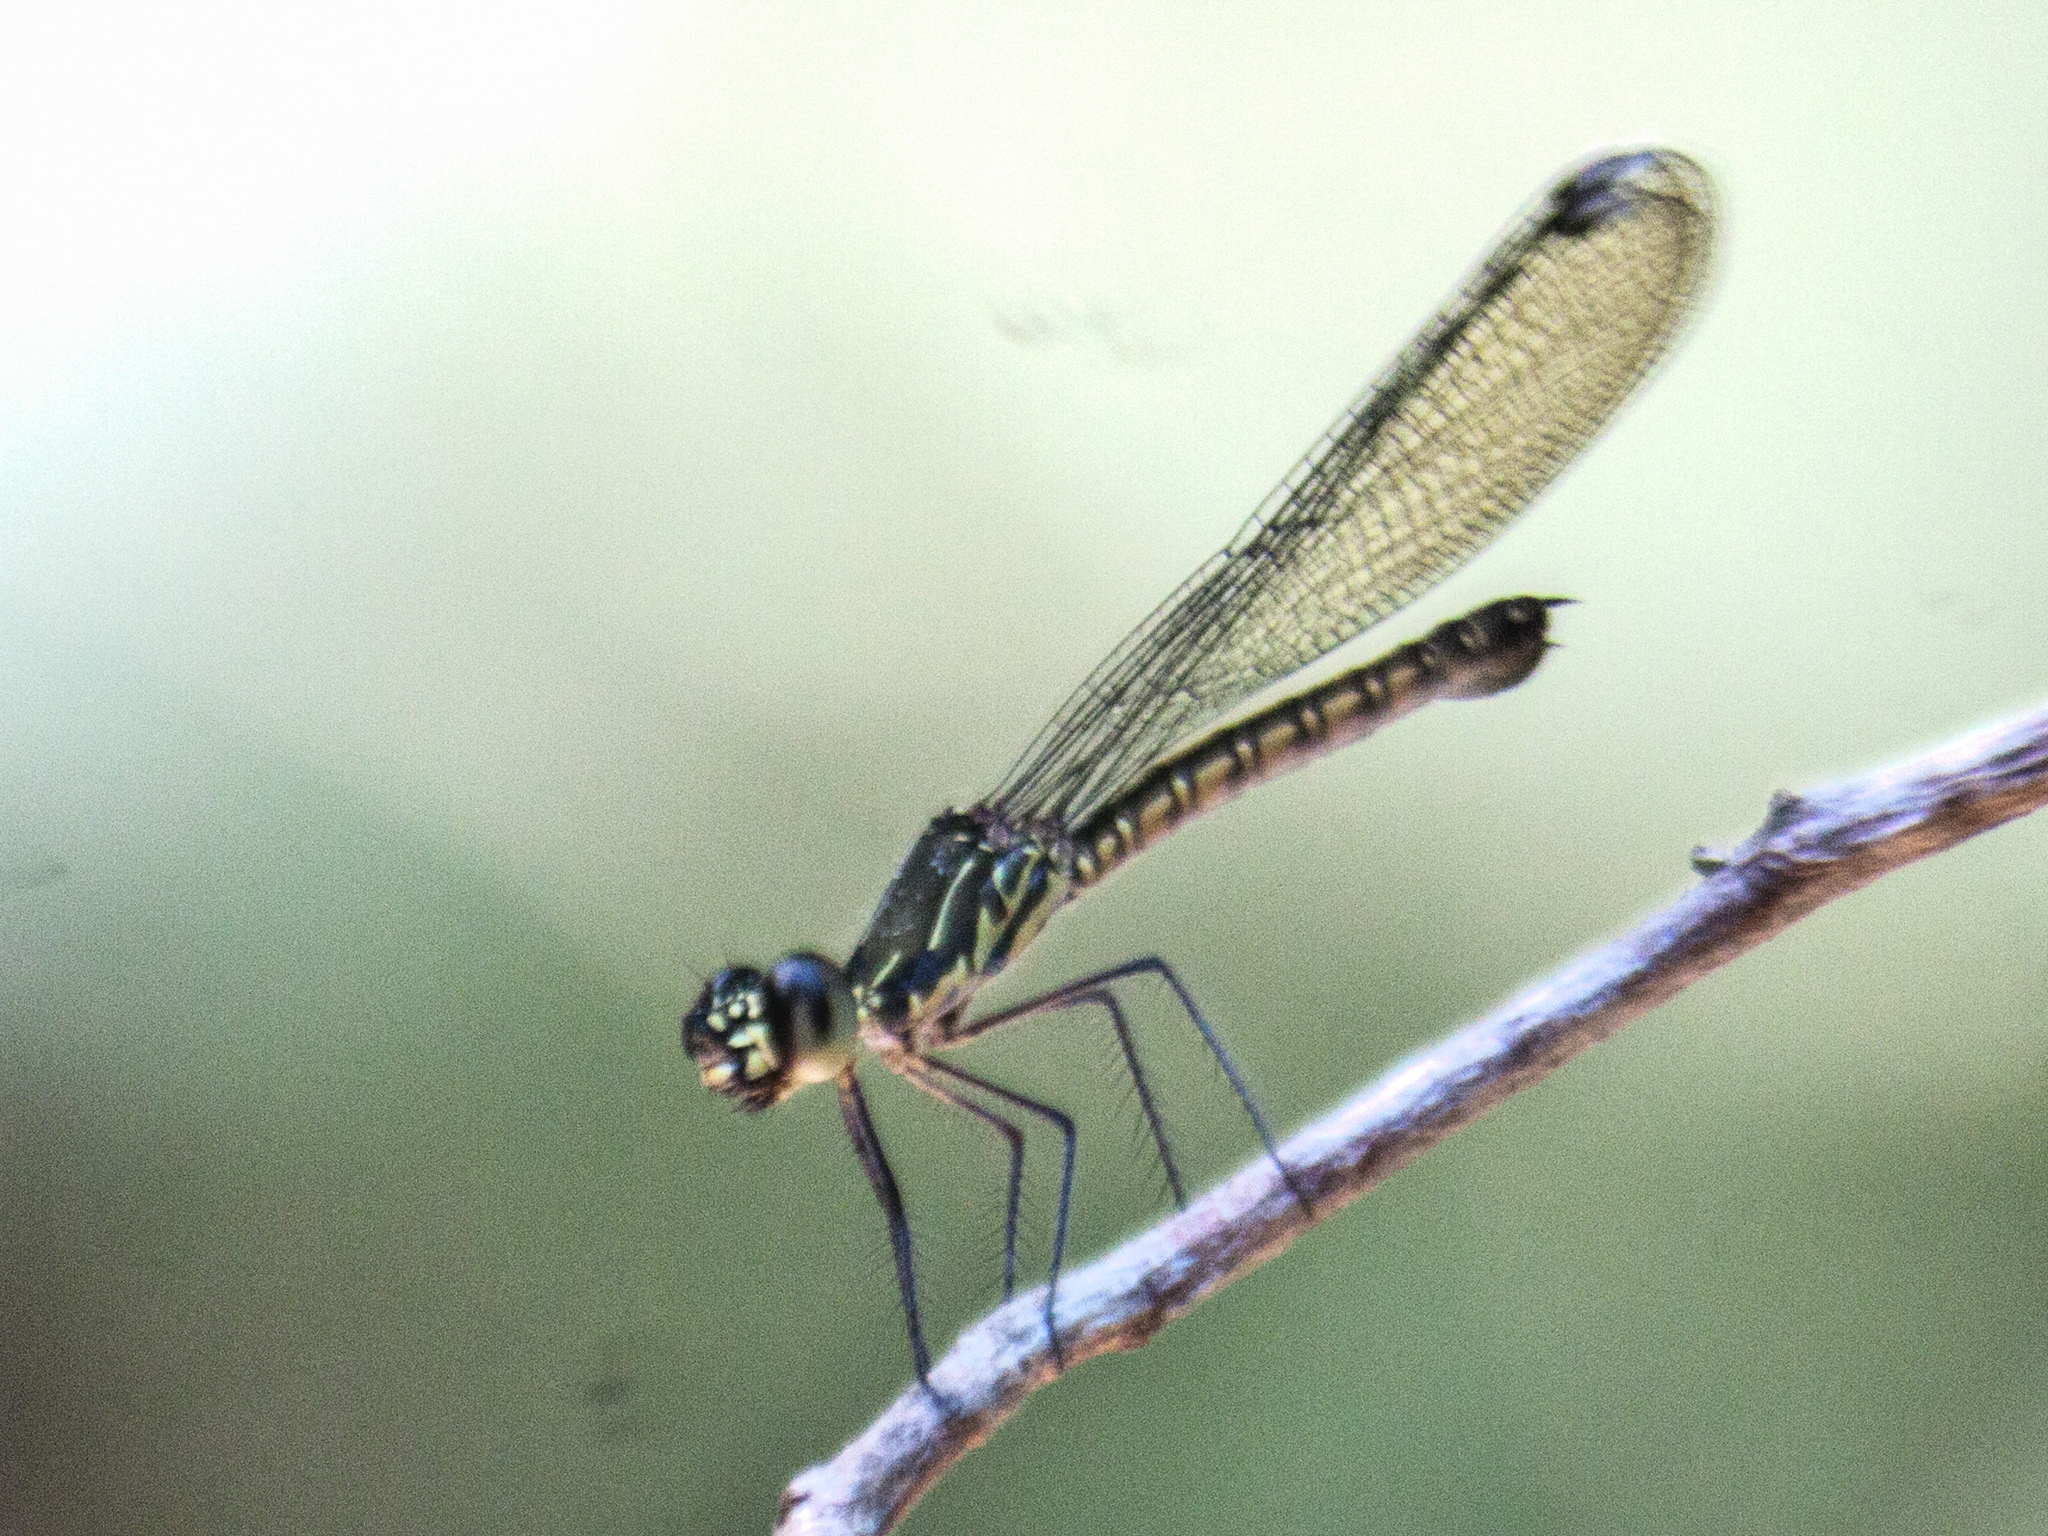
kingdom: Animalia
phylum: Arthropoda
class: Insecta
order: Odonata
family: Chlorocyphidae
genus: Libellago
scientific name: Libellago hyalina
